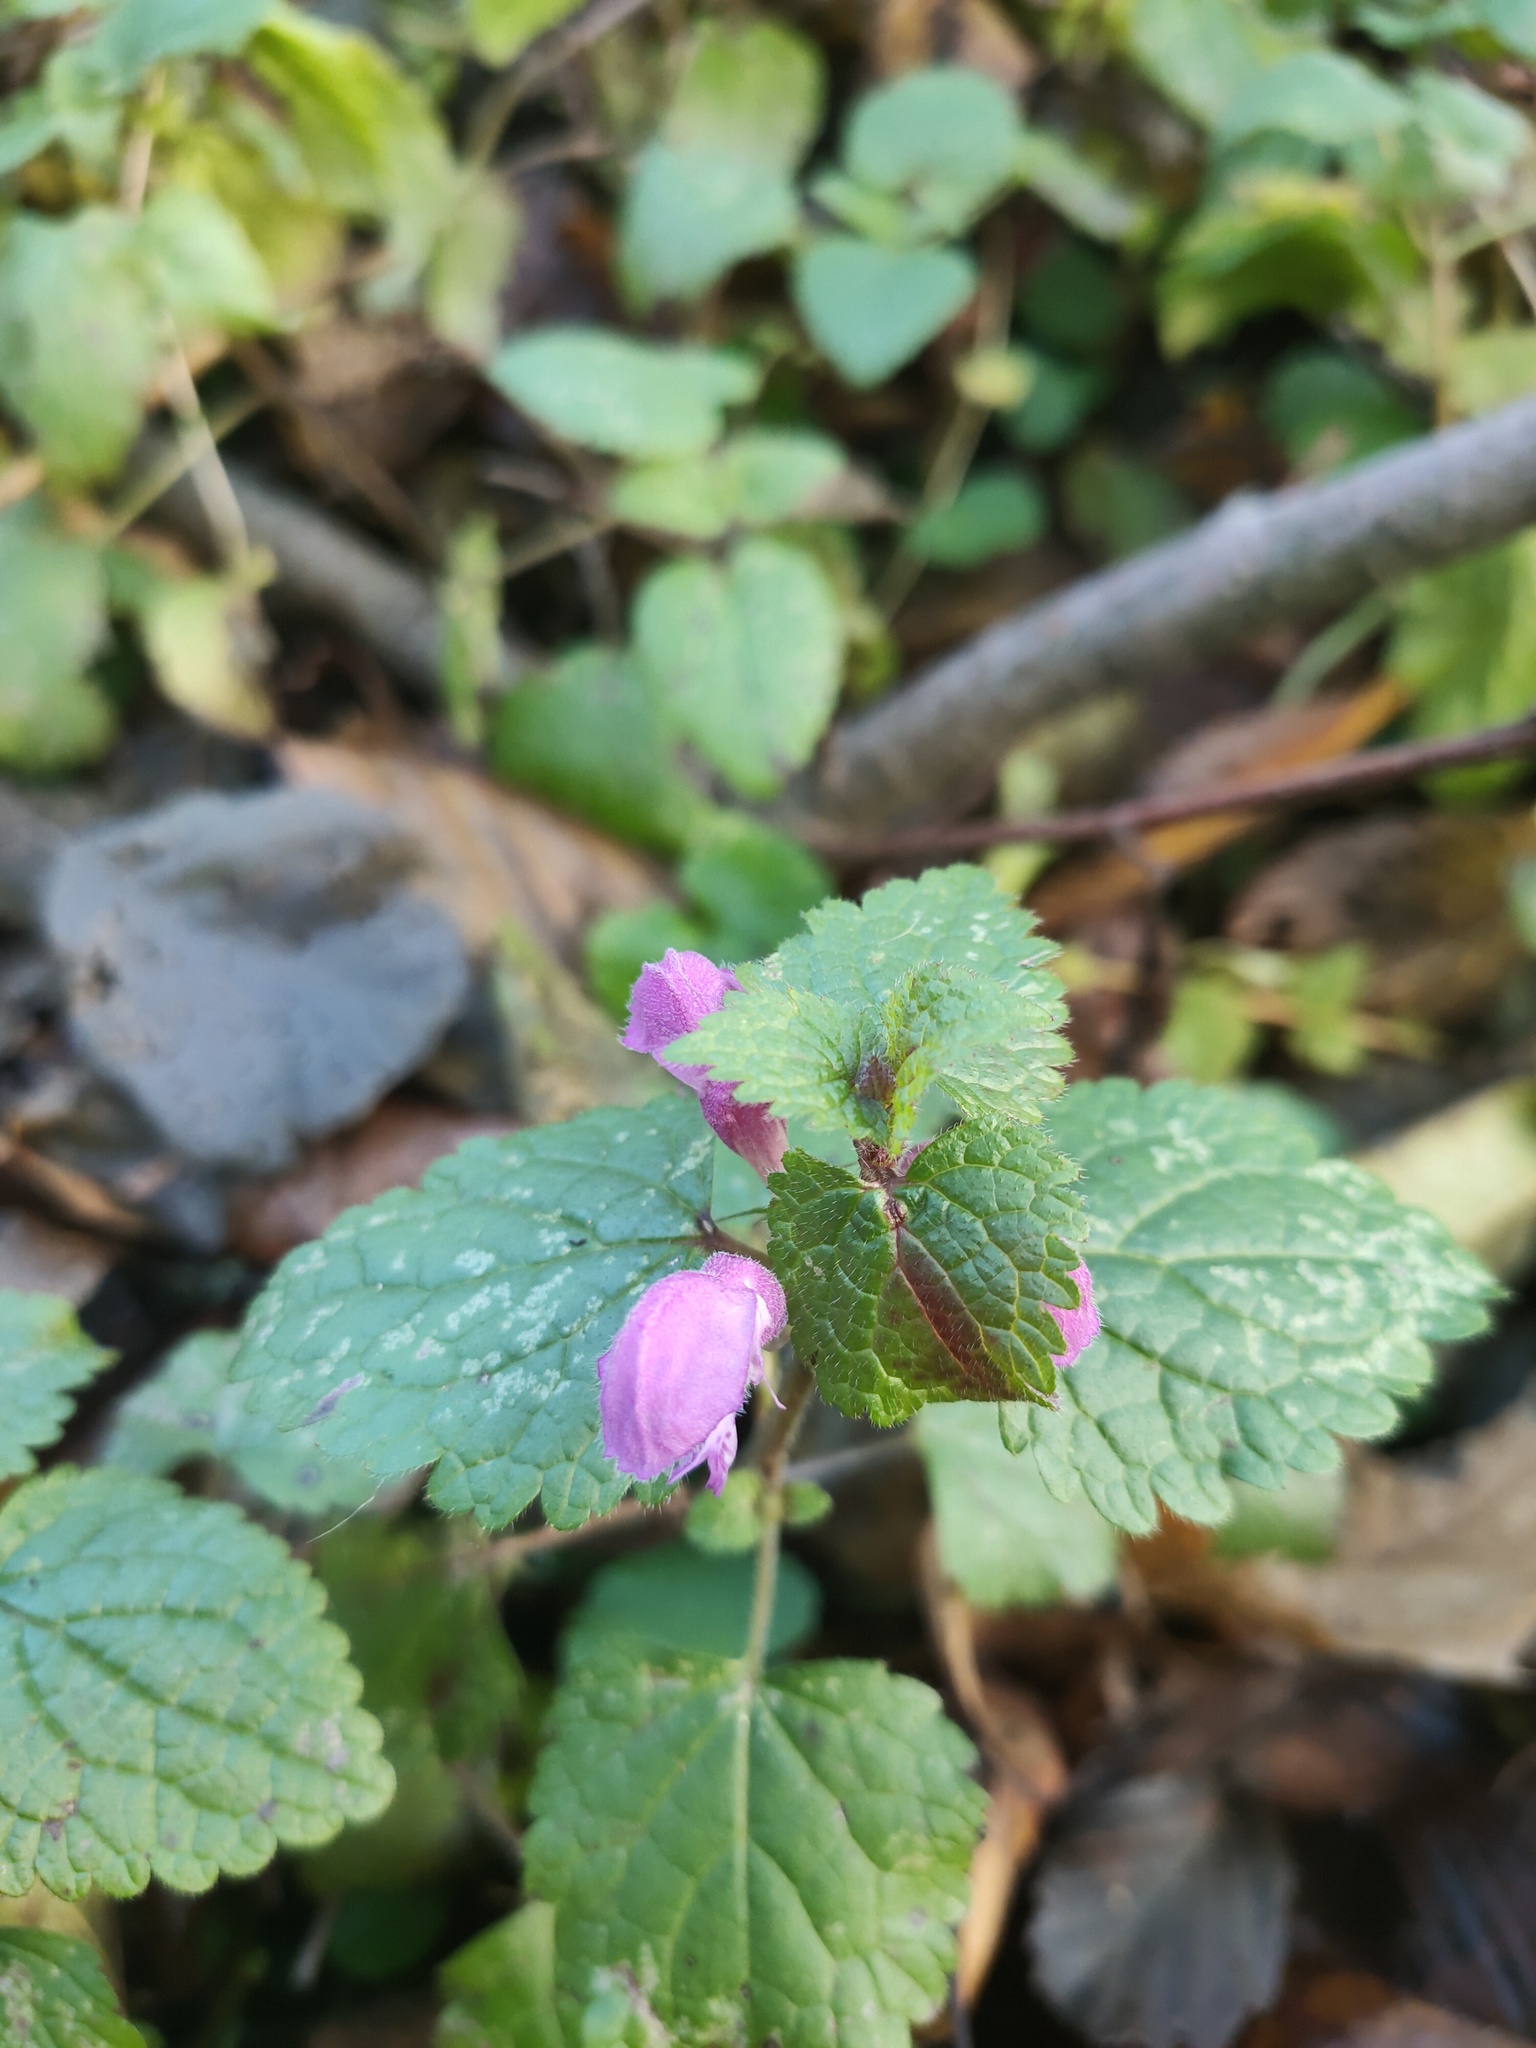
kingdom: Plantae
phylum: Tracheophyta
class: Magnoliopsida
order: Lamiales
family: Lamiaceae
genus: Lamium
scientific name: Lamium maculatum
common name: Spotted dead-nettle
